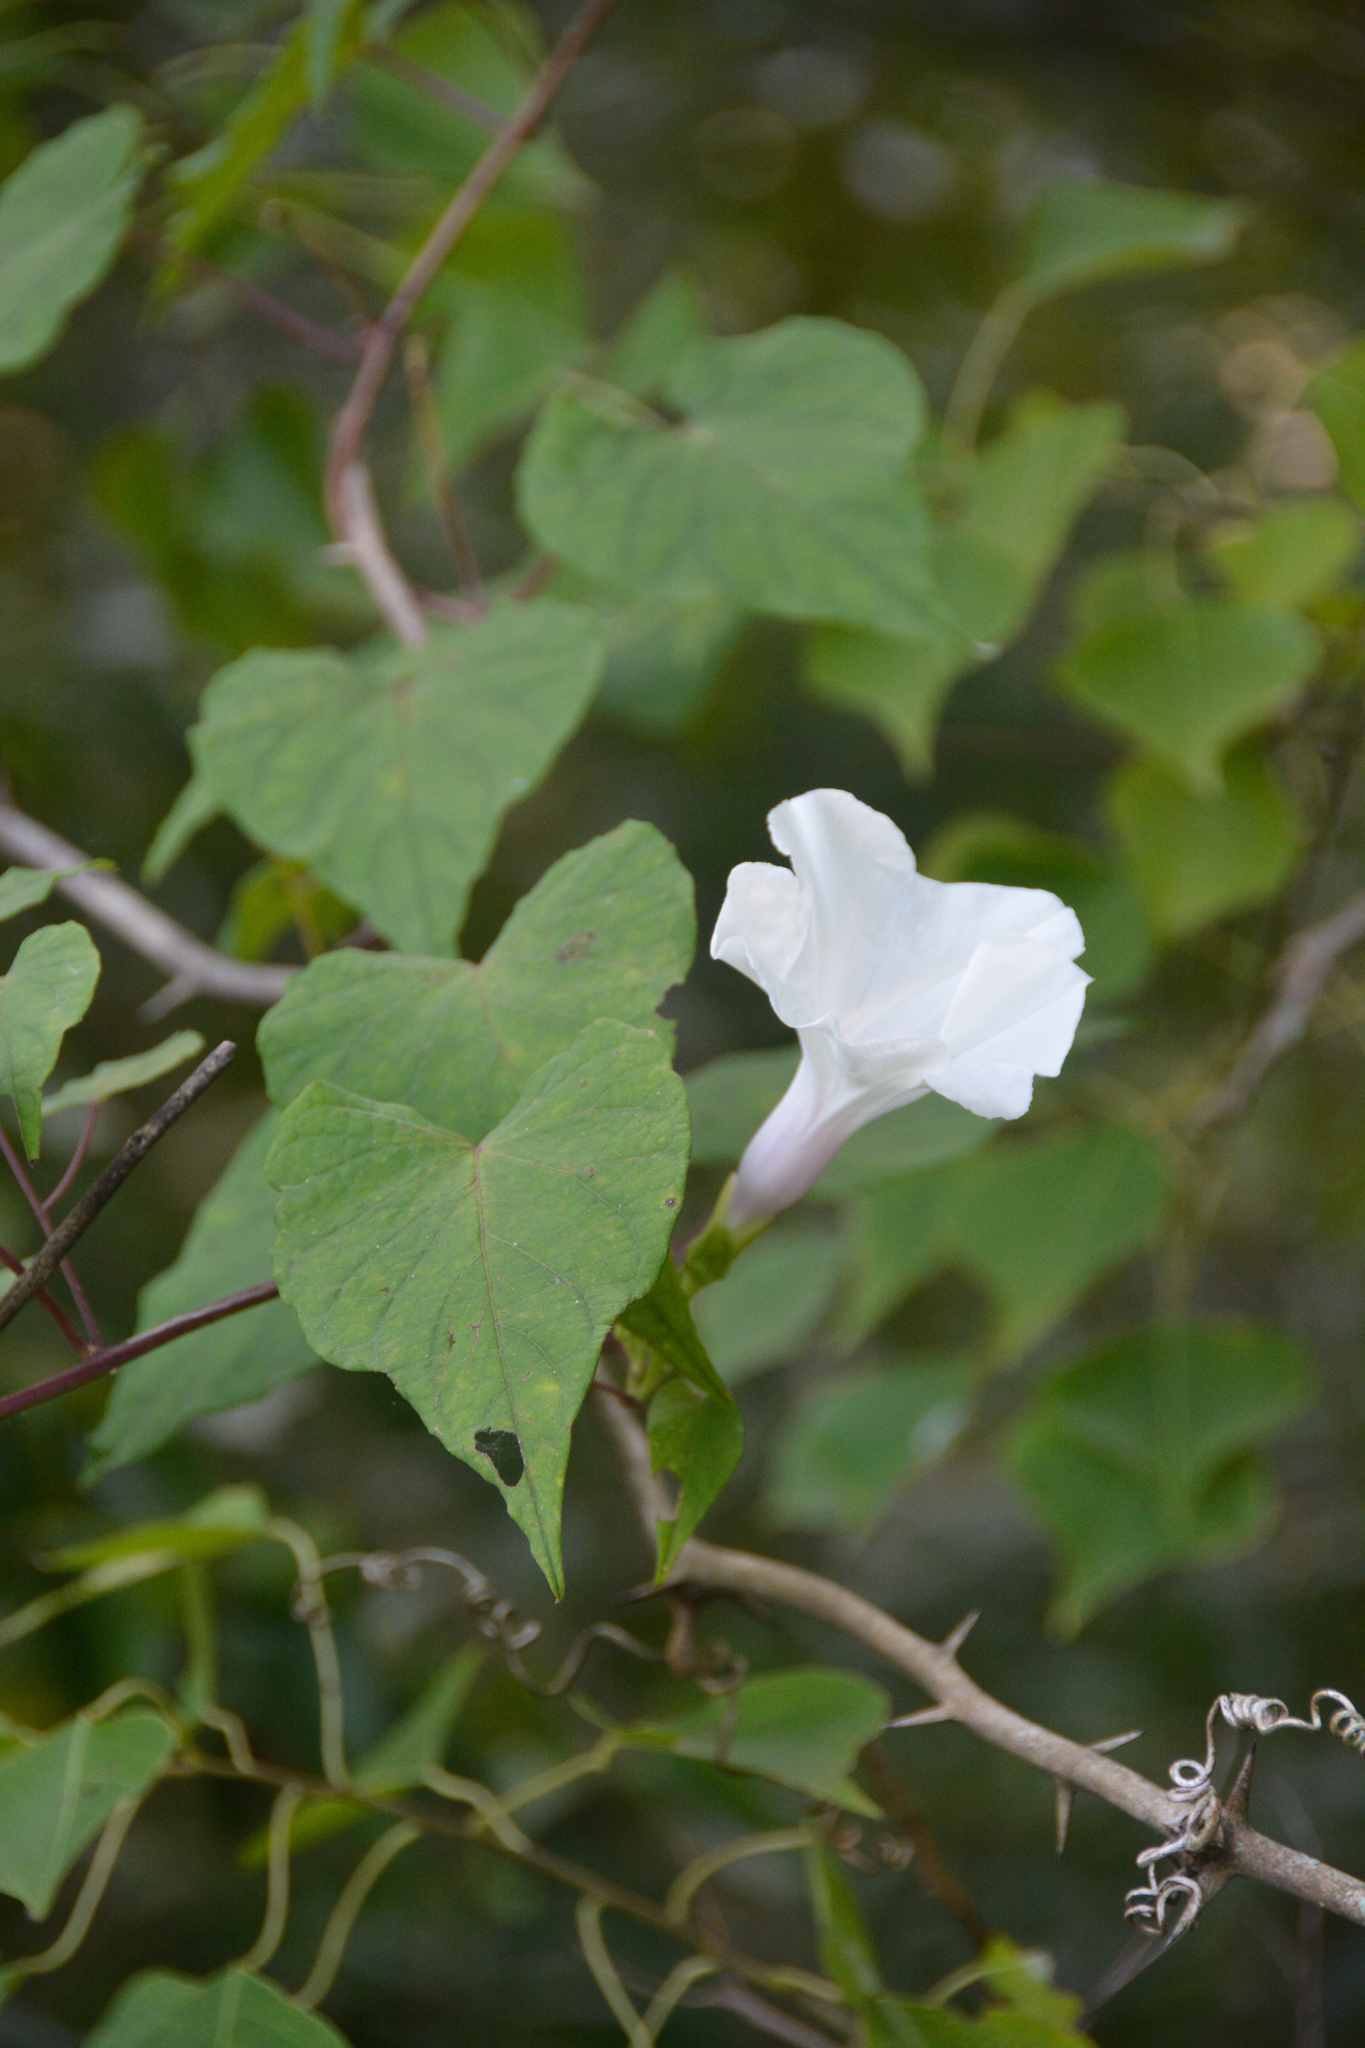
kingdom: Plantae
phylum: Tracheophyta
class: Magnoliopsida
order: Solanales
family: Convolvulaceae
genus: Ipomoea
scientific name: Ipomoea pandurata
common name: Man-of-the-earth
